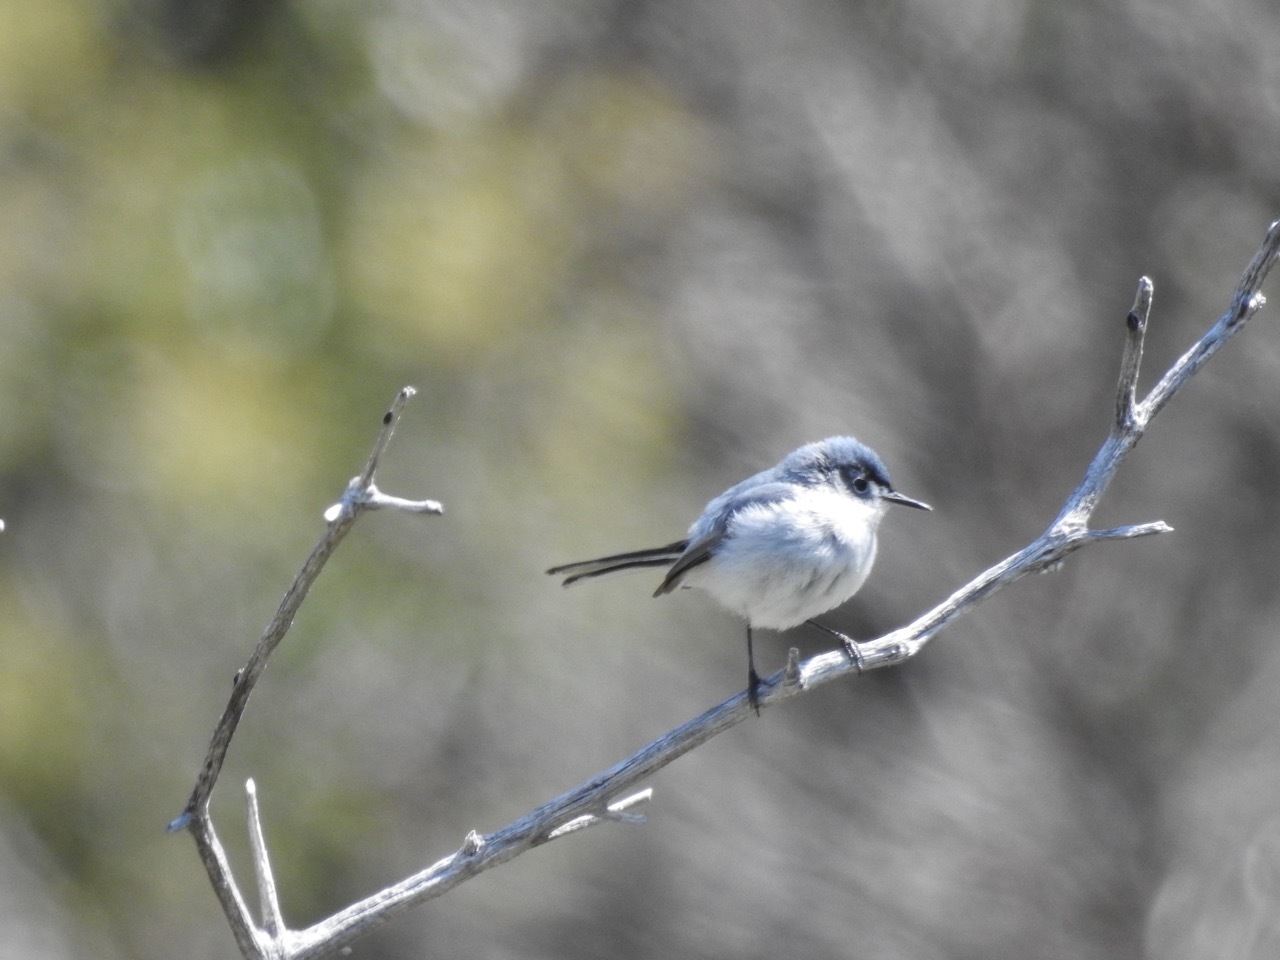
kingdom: Animalia
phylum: Chordata
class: Aves
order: Passeriformes
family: Polioptilidae
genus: Polioptila
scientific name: Polioptila caerulea
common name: Blue-gray gnatcatcher
